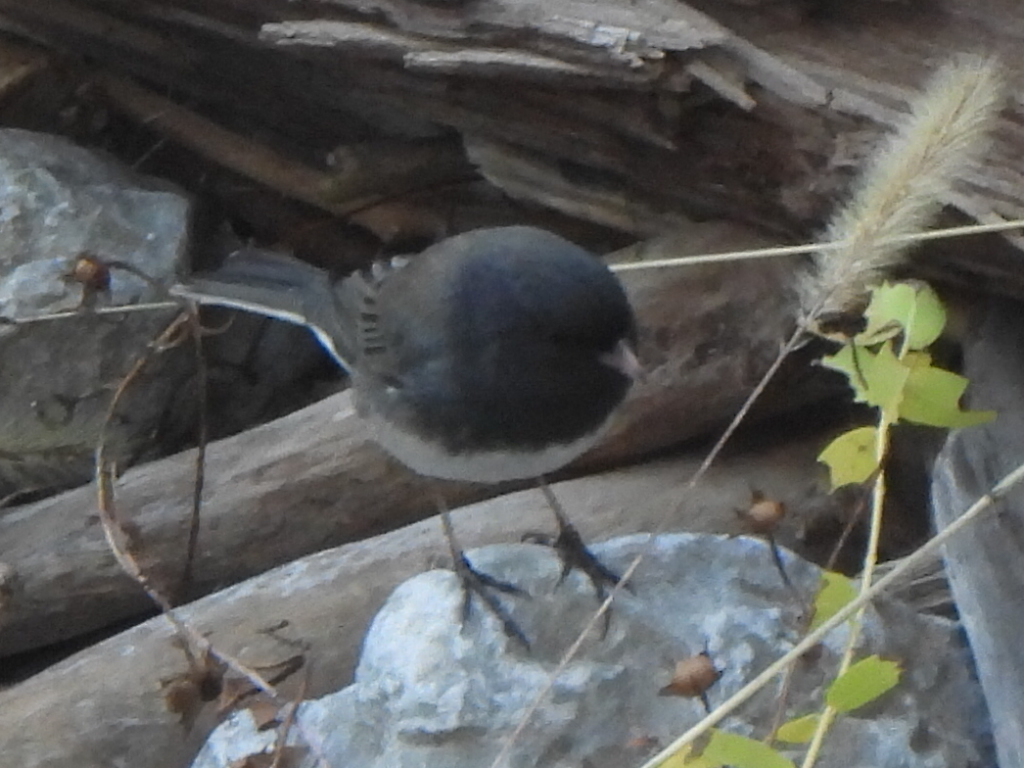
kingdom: Animalia
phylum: Chordata
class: Aves
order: Passeriformes
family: Passerellidae
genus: Junco
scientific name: Junco hyemalis
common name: Dark-eyed junco
